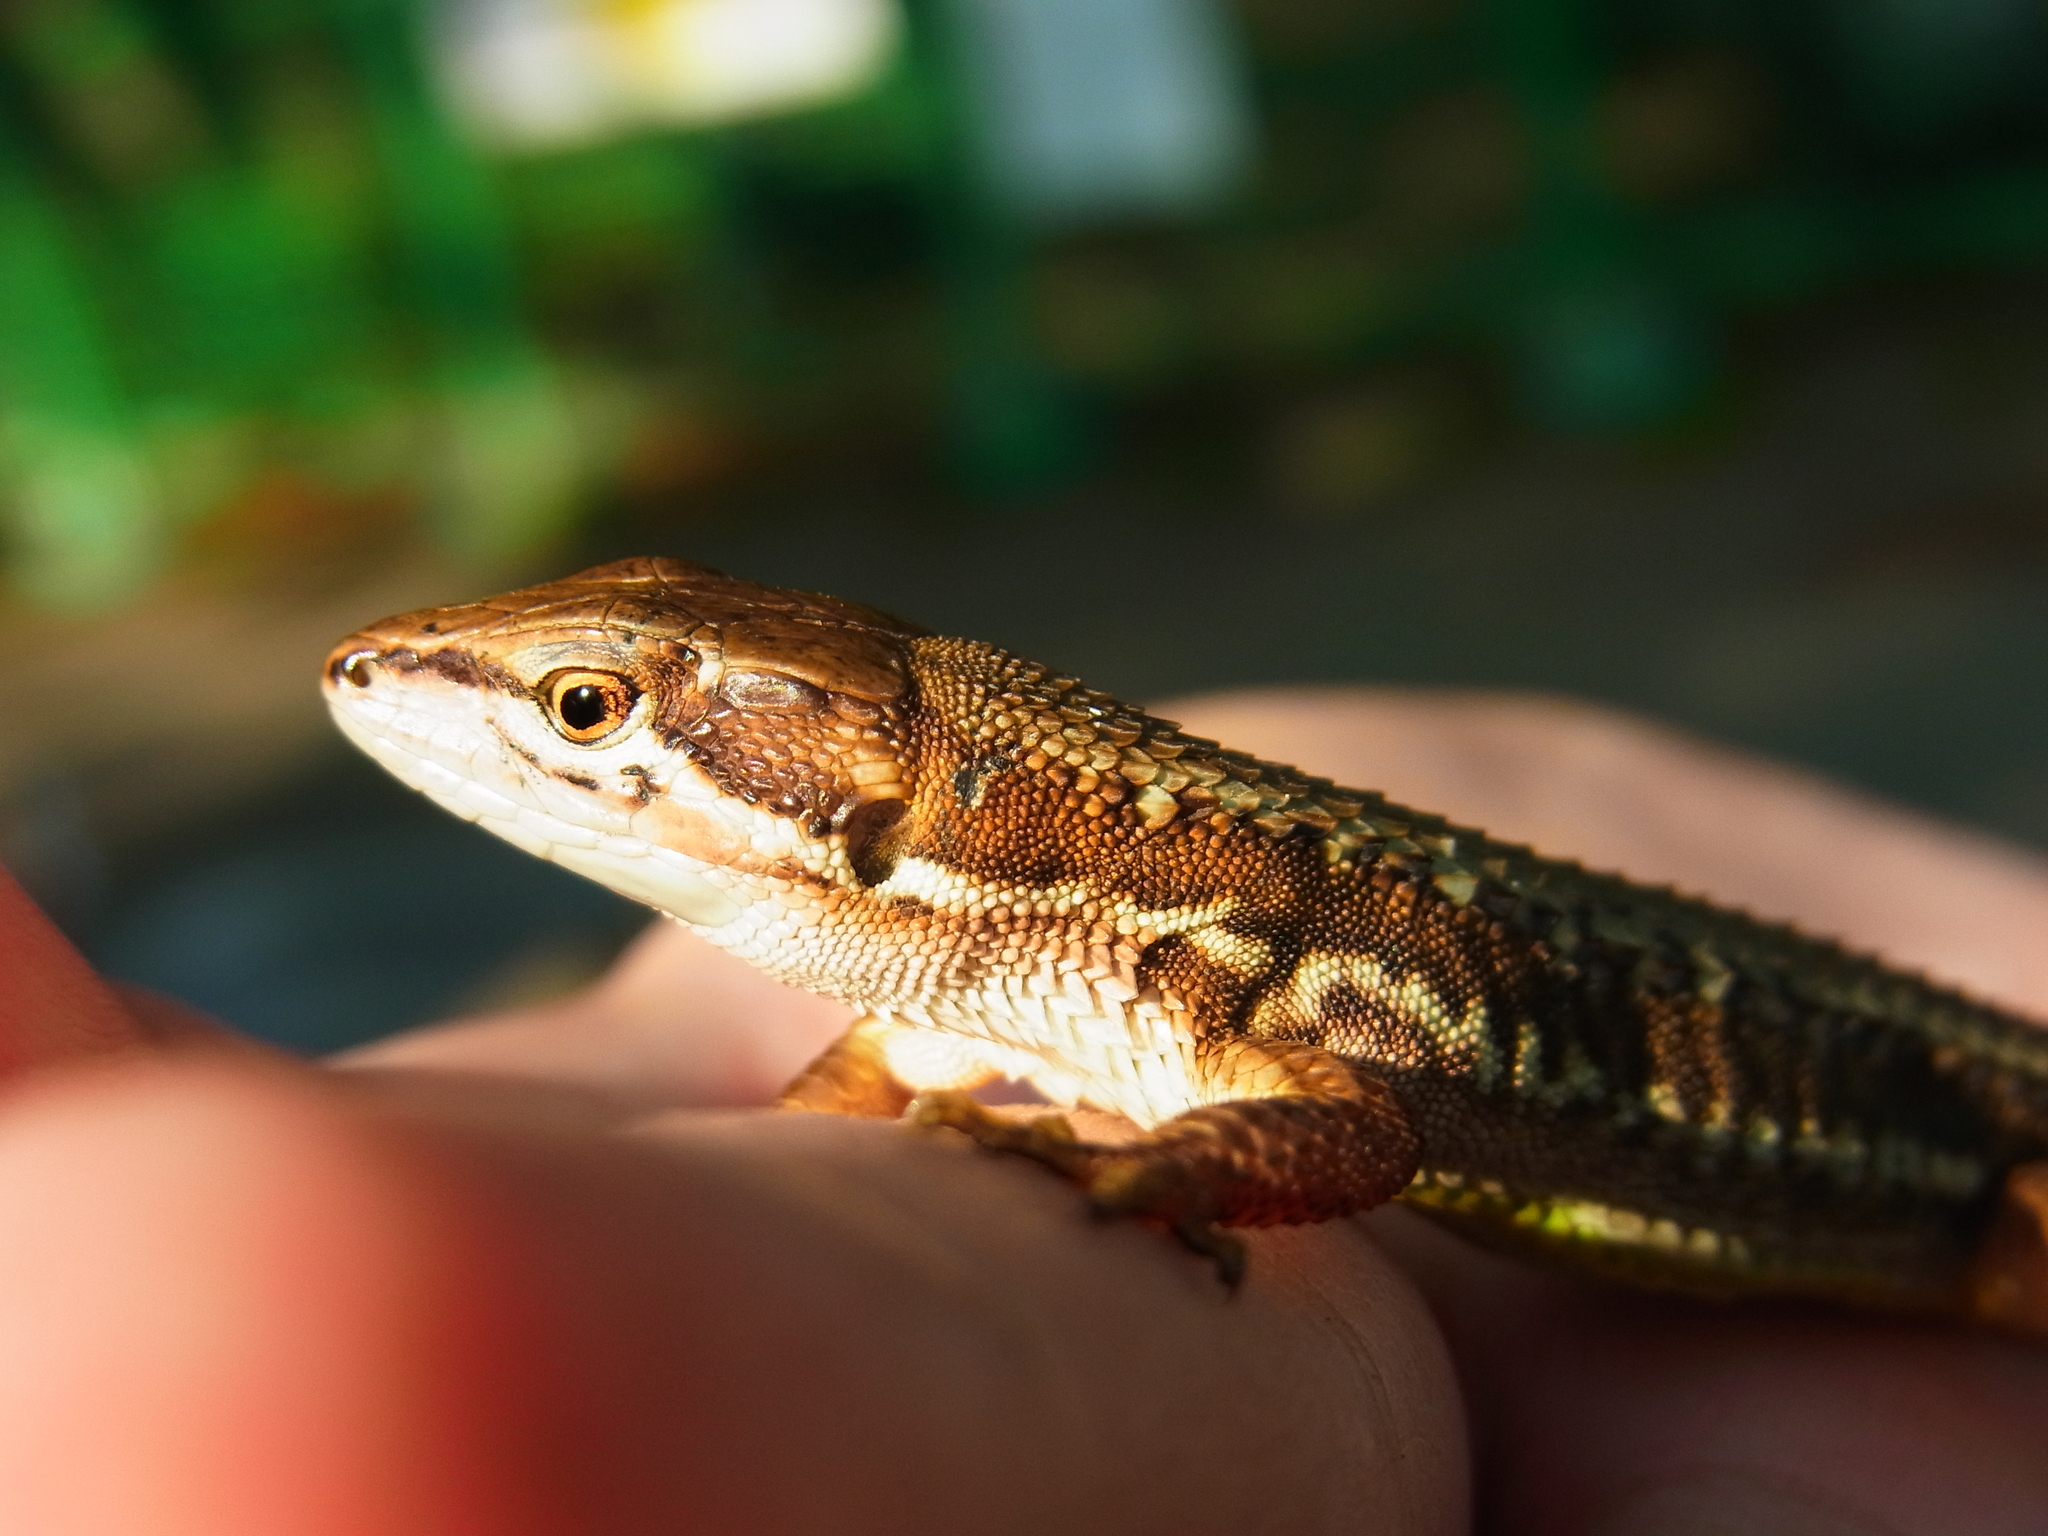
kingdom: Animalia
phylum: Chordata
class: Squamata
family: Lacertidae
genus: Takydromus
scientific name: Takydromus tachydromoides
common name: Japanese grass lizard
